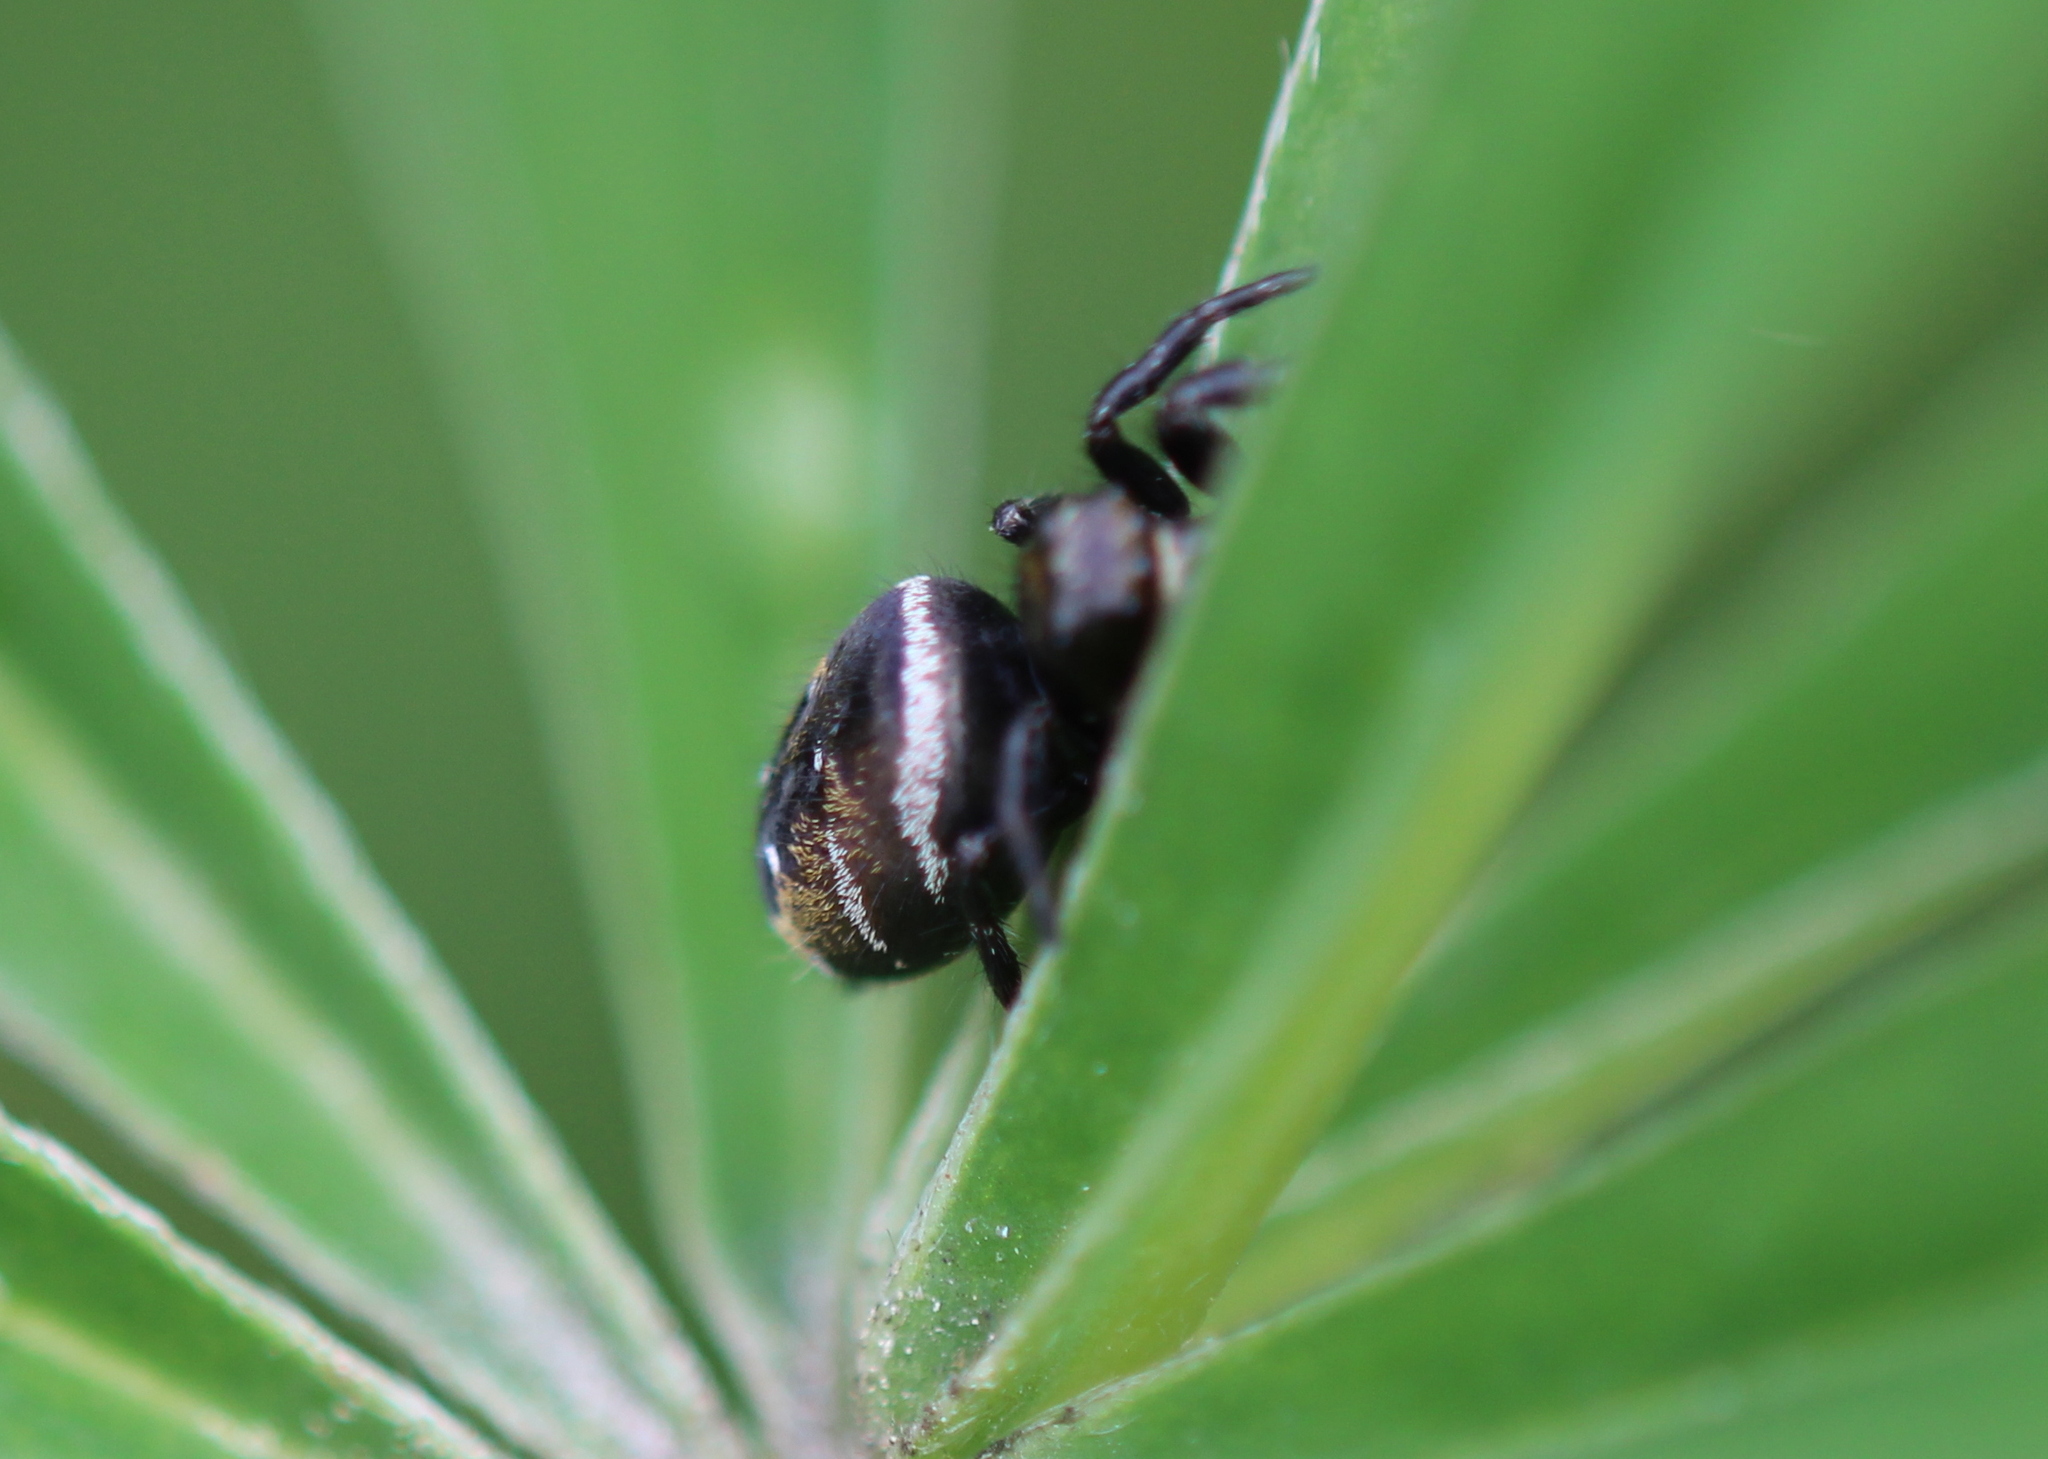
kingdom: Animalia
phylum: Arthropoda
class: Arachnida
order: Araneae
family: Salticidae
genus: Phidippus
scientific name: Phidippus clarus
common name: Brilliant jumping spider
